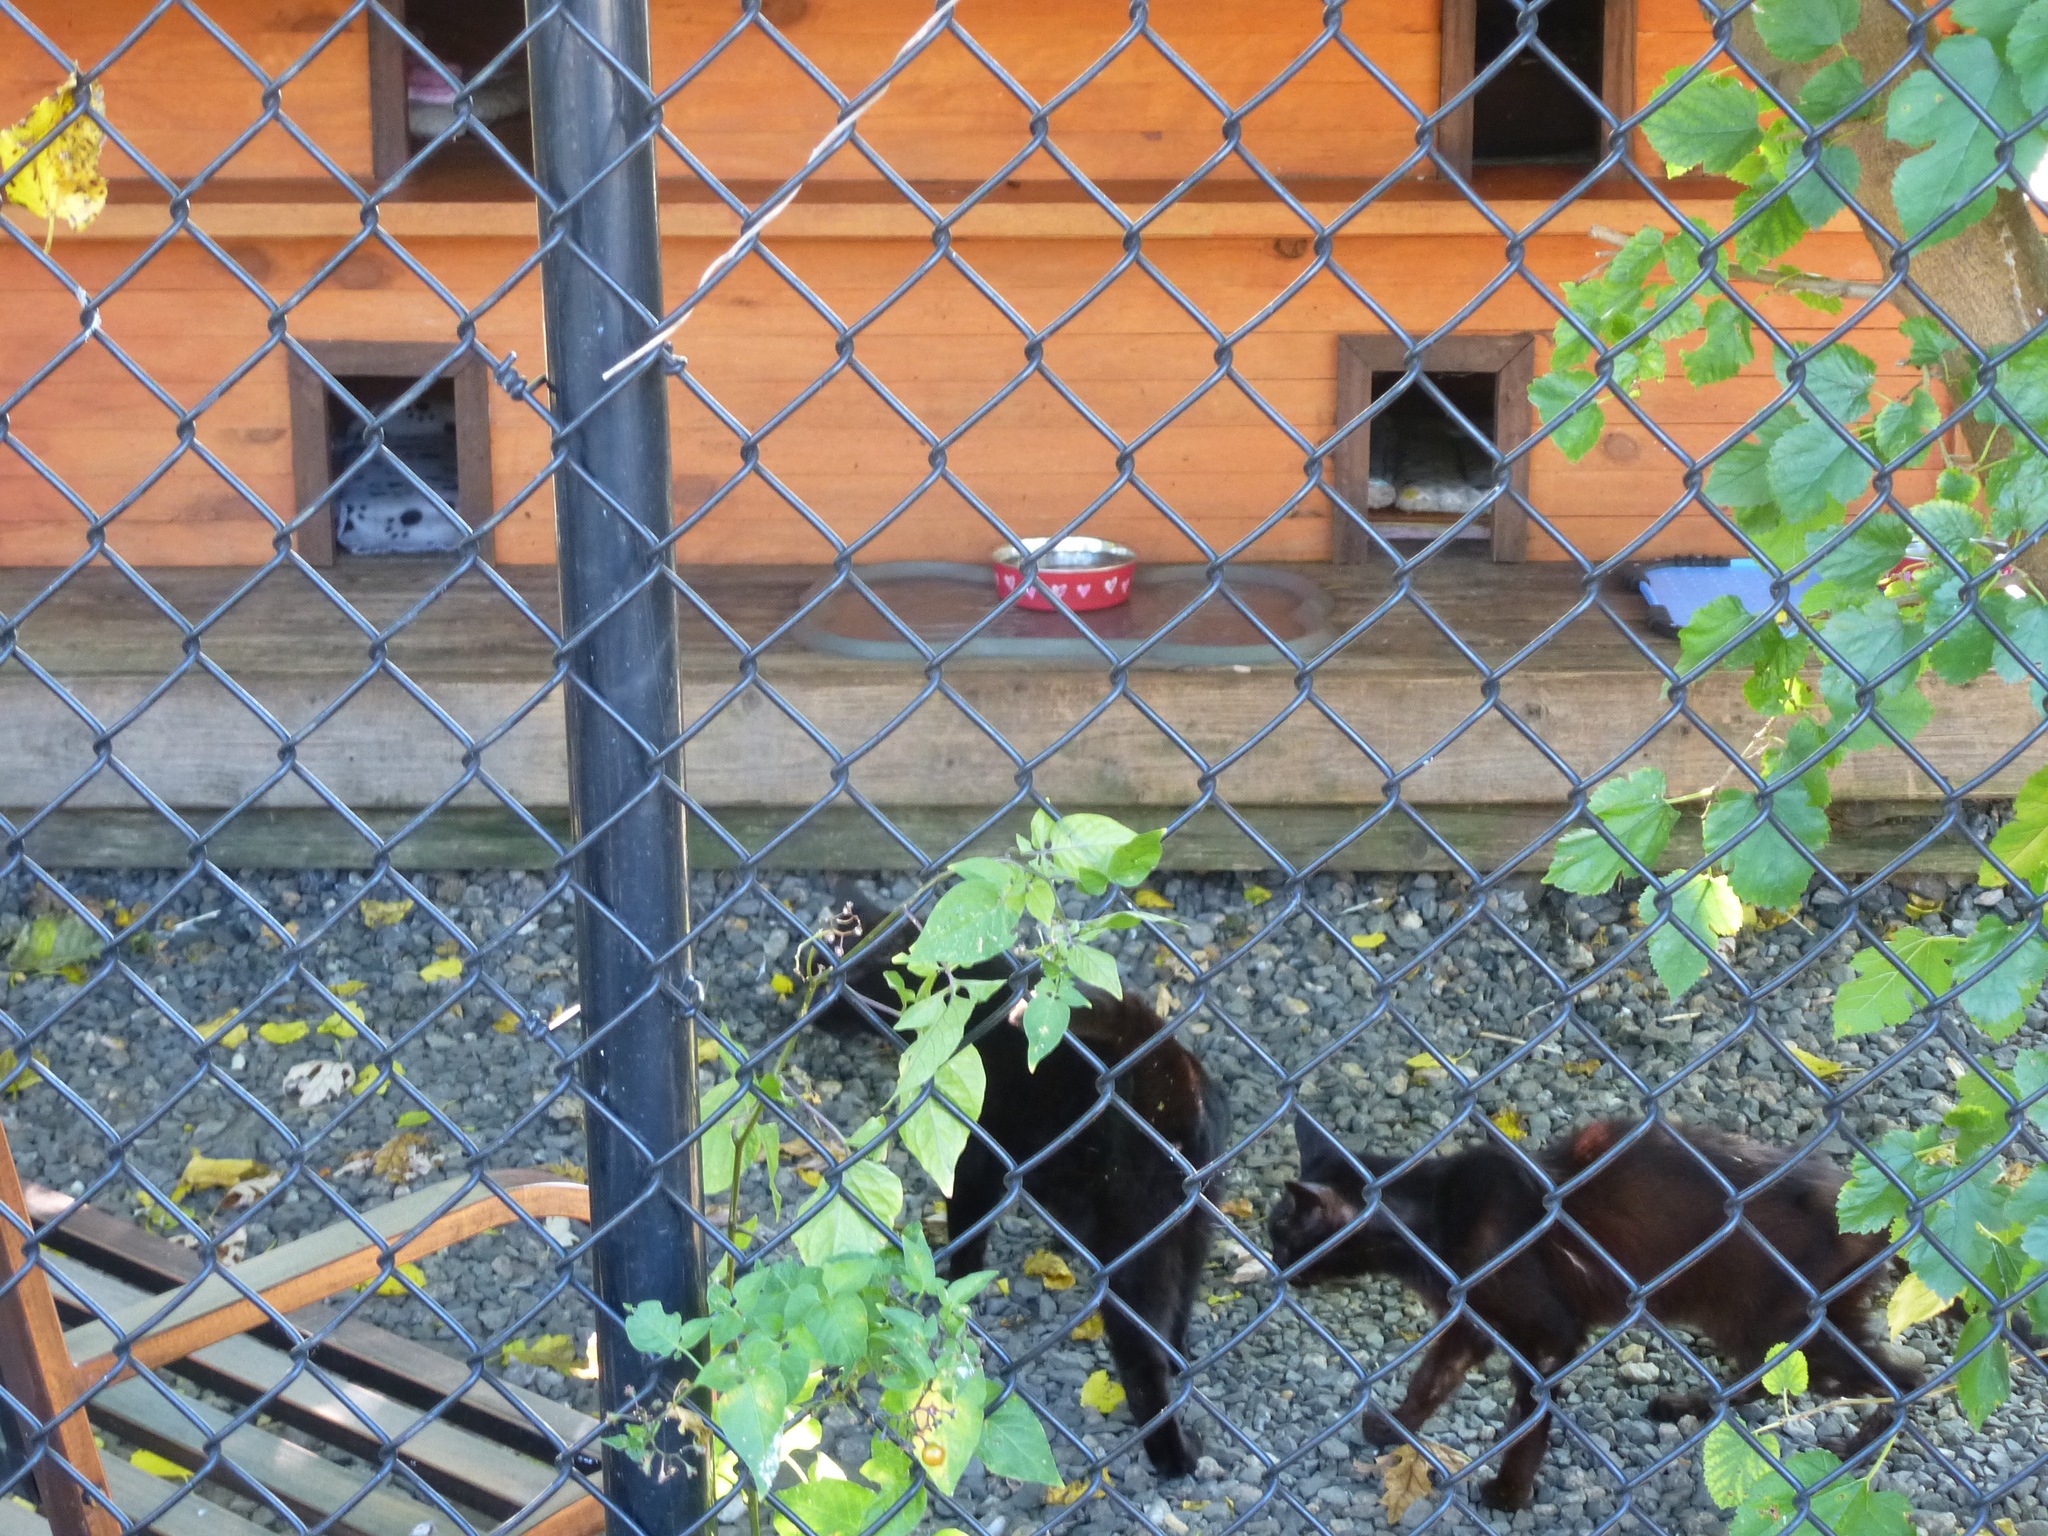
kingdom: Animalia
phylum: Chordata
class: Mammalia
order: Carnivora
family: Felidae
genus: Felis
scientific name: Felis catus
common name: Domestic cat
